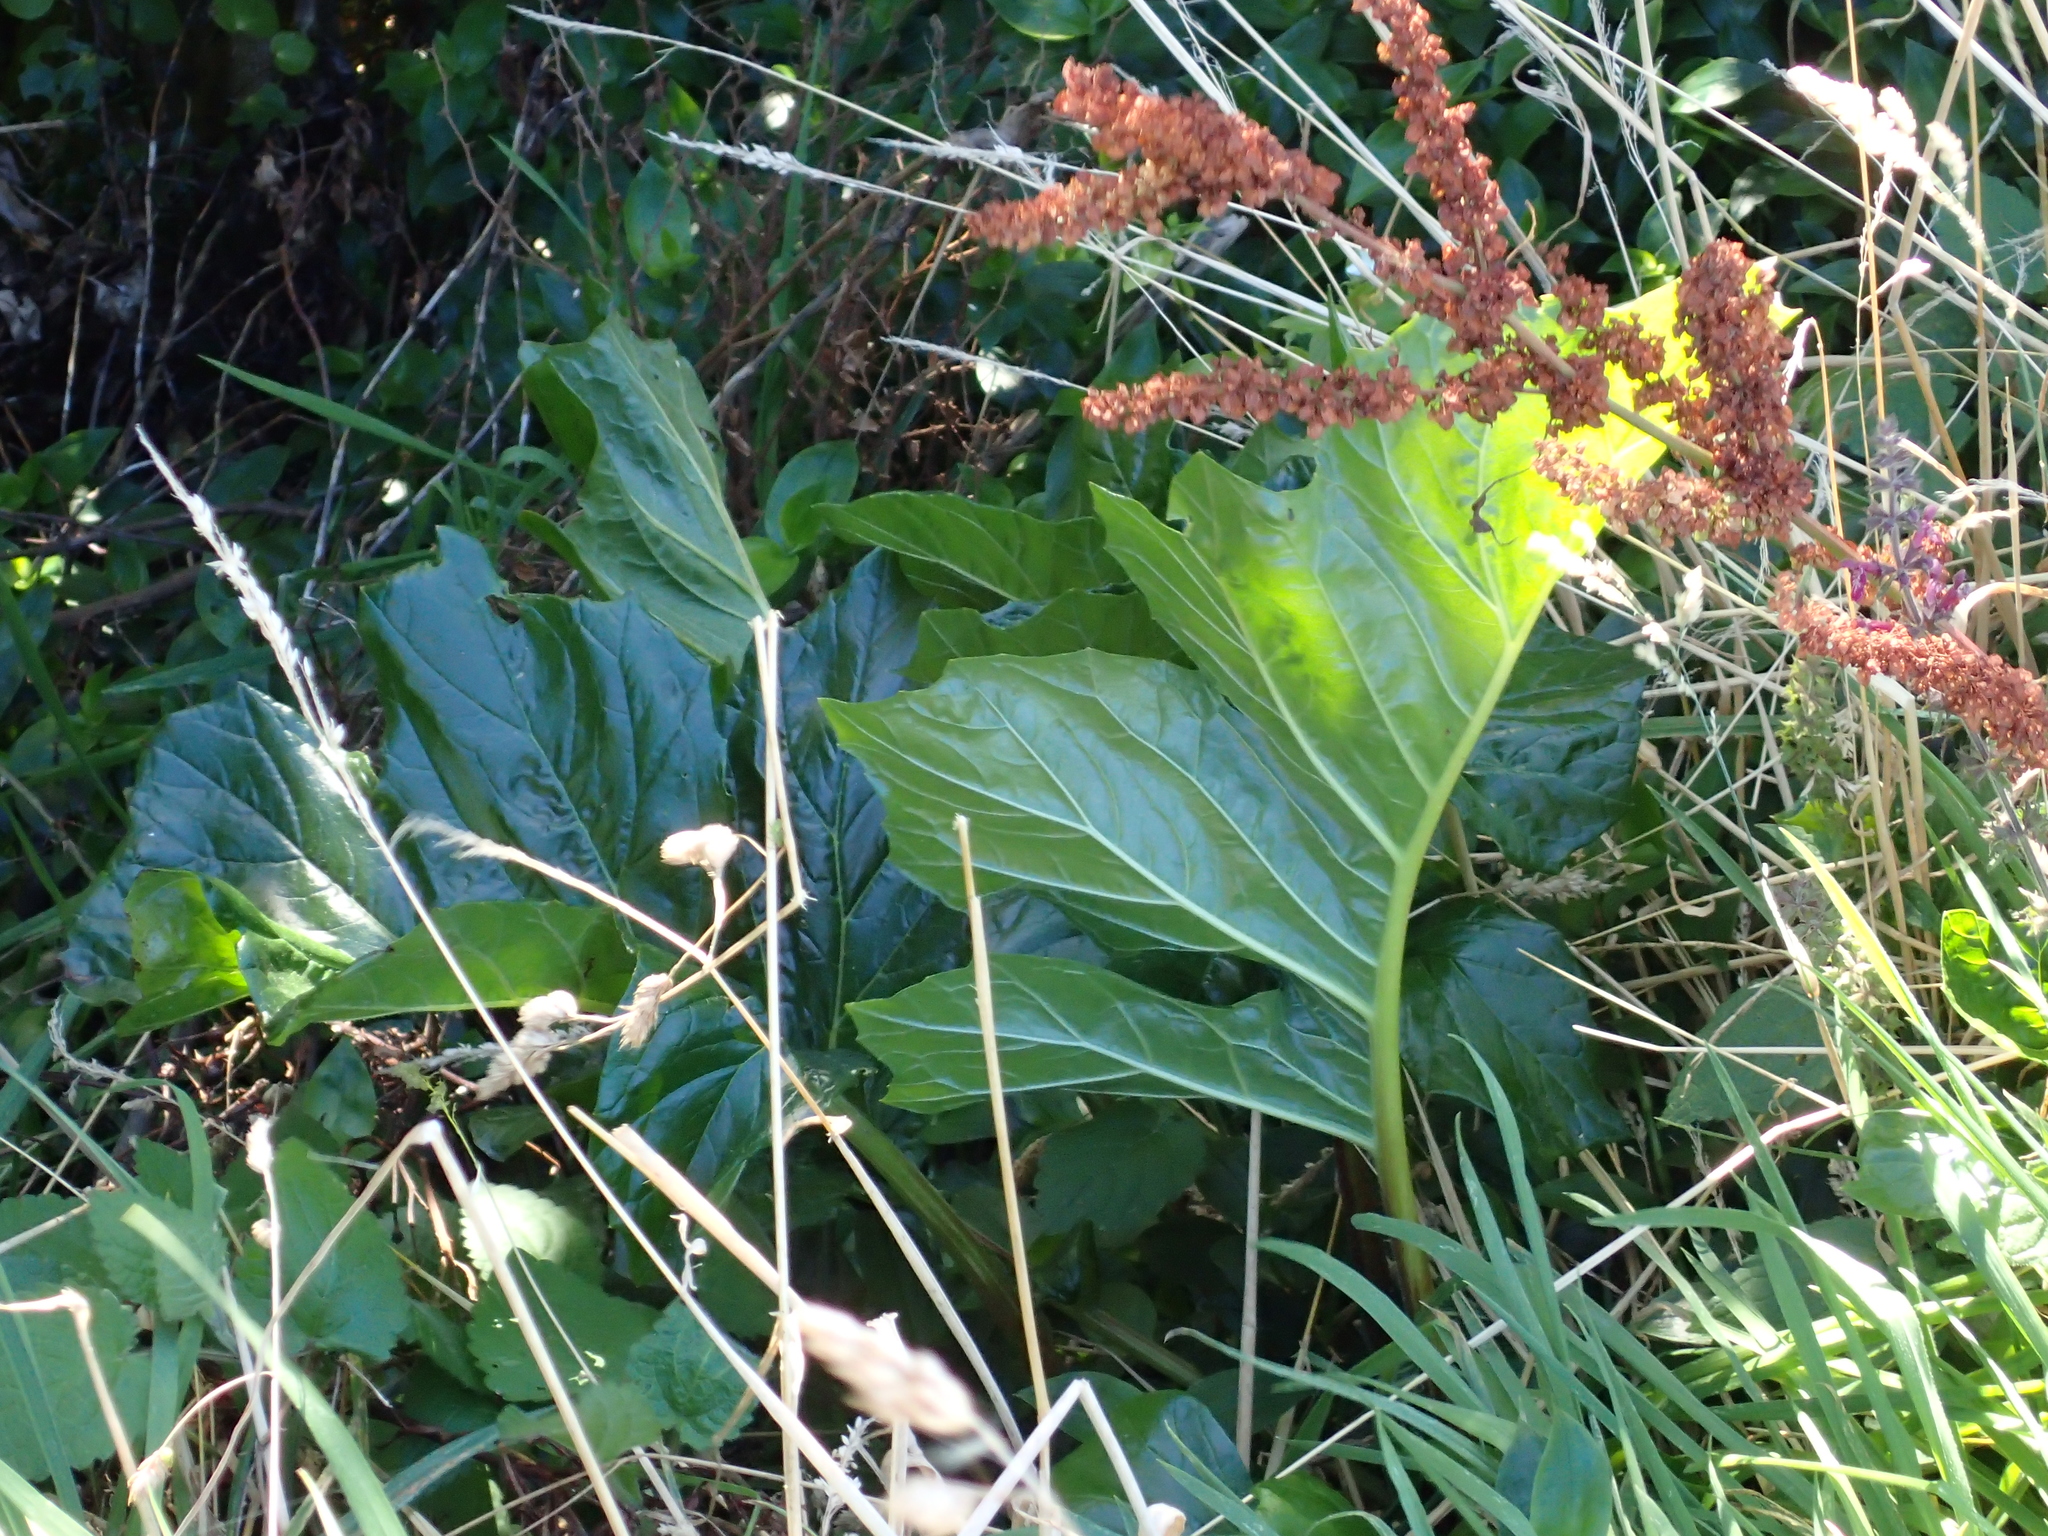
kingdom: Plantae
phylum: Tracheophyta
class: Magnoliopsida
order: Lamiales
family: Acanthaceae
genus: Acanthus
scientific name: Acanthus mollis
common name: Bear's-breech
